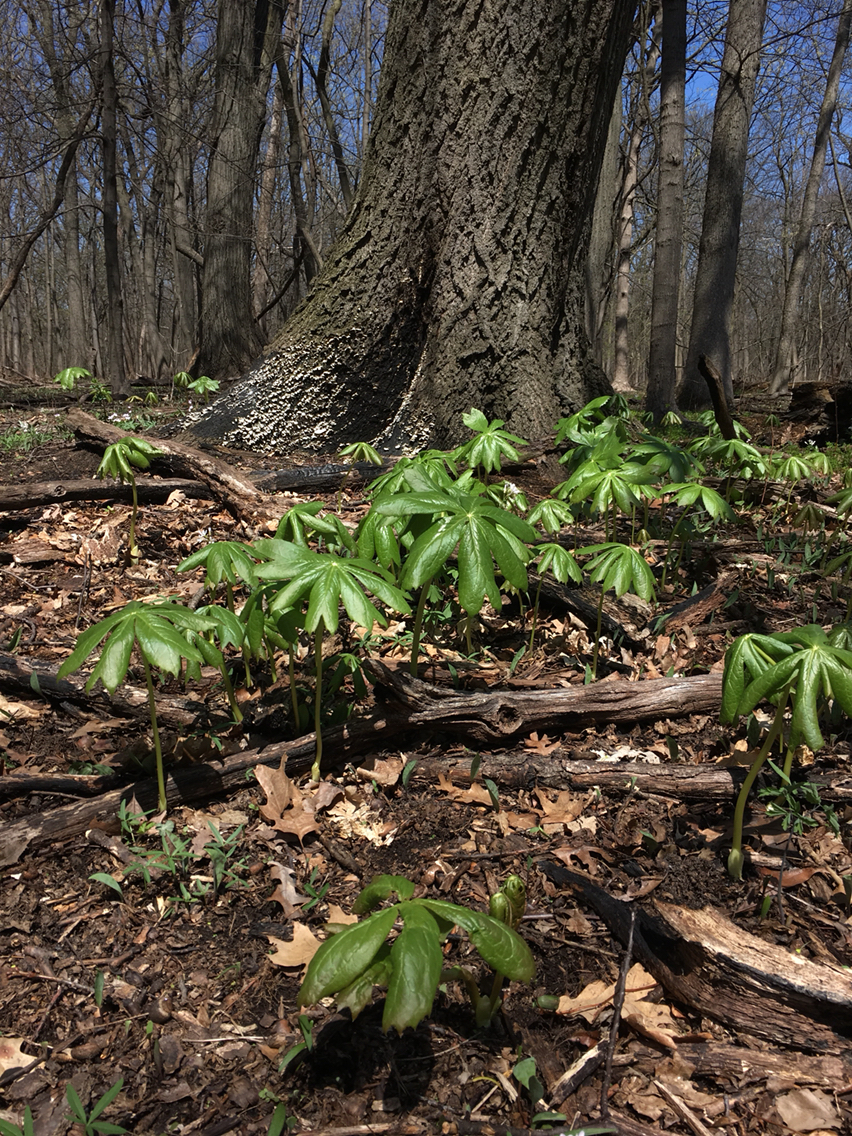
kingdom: Plantae
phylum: Tracheophyta
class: Magnoliopsida
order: Ranunculales
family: Berberidaceae
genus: Podophyllum
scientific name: Podophyllum peltatum
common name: Wild mandrake
